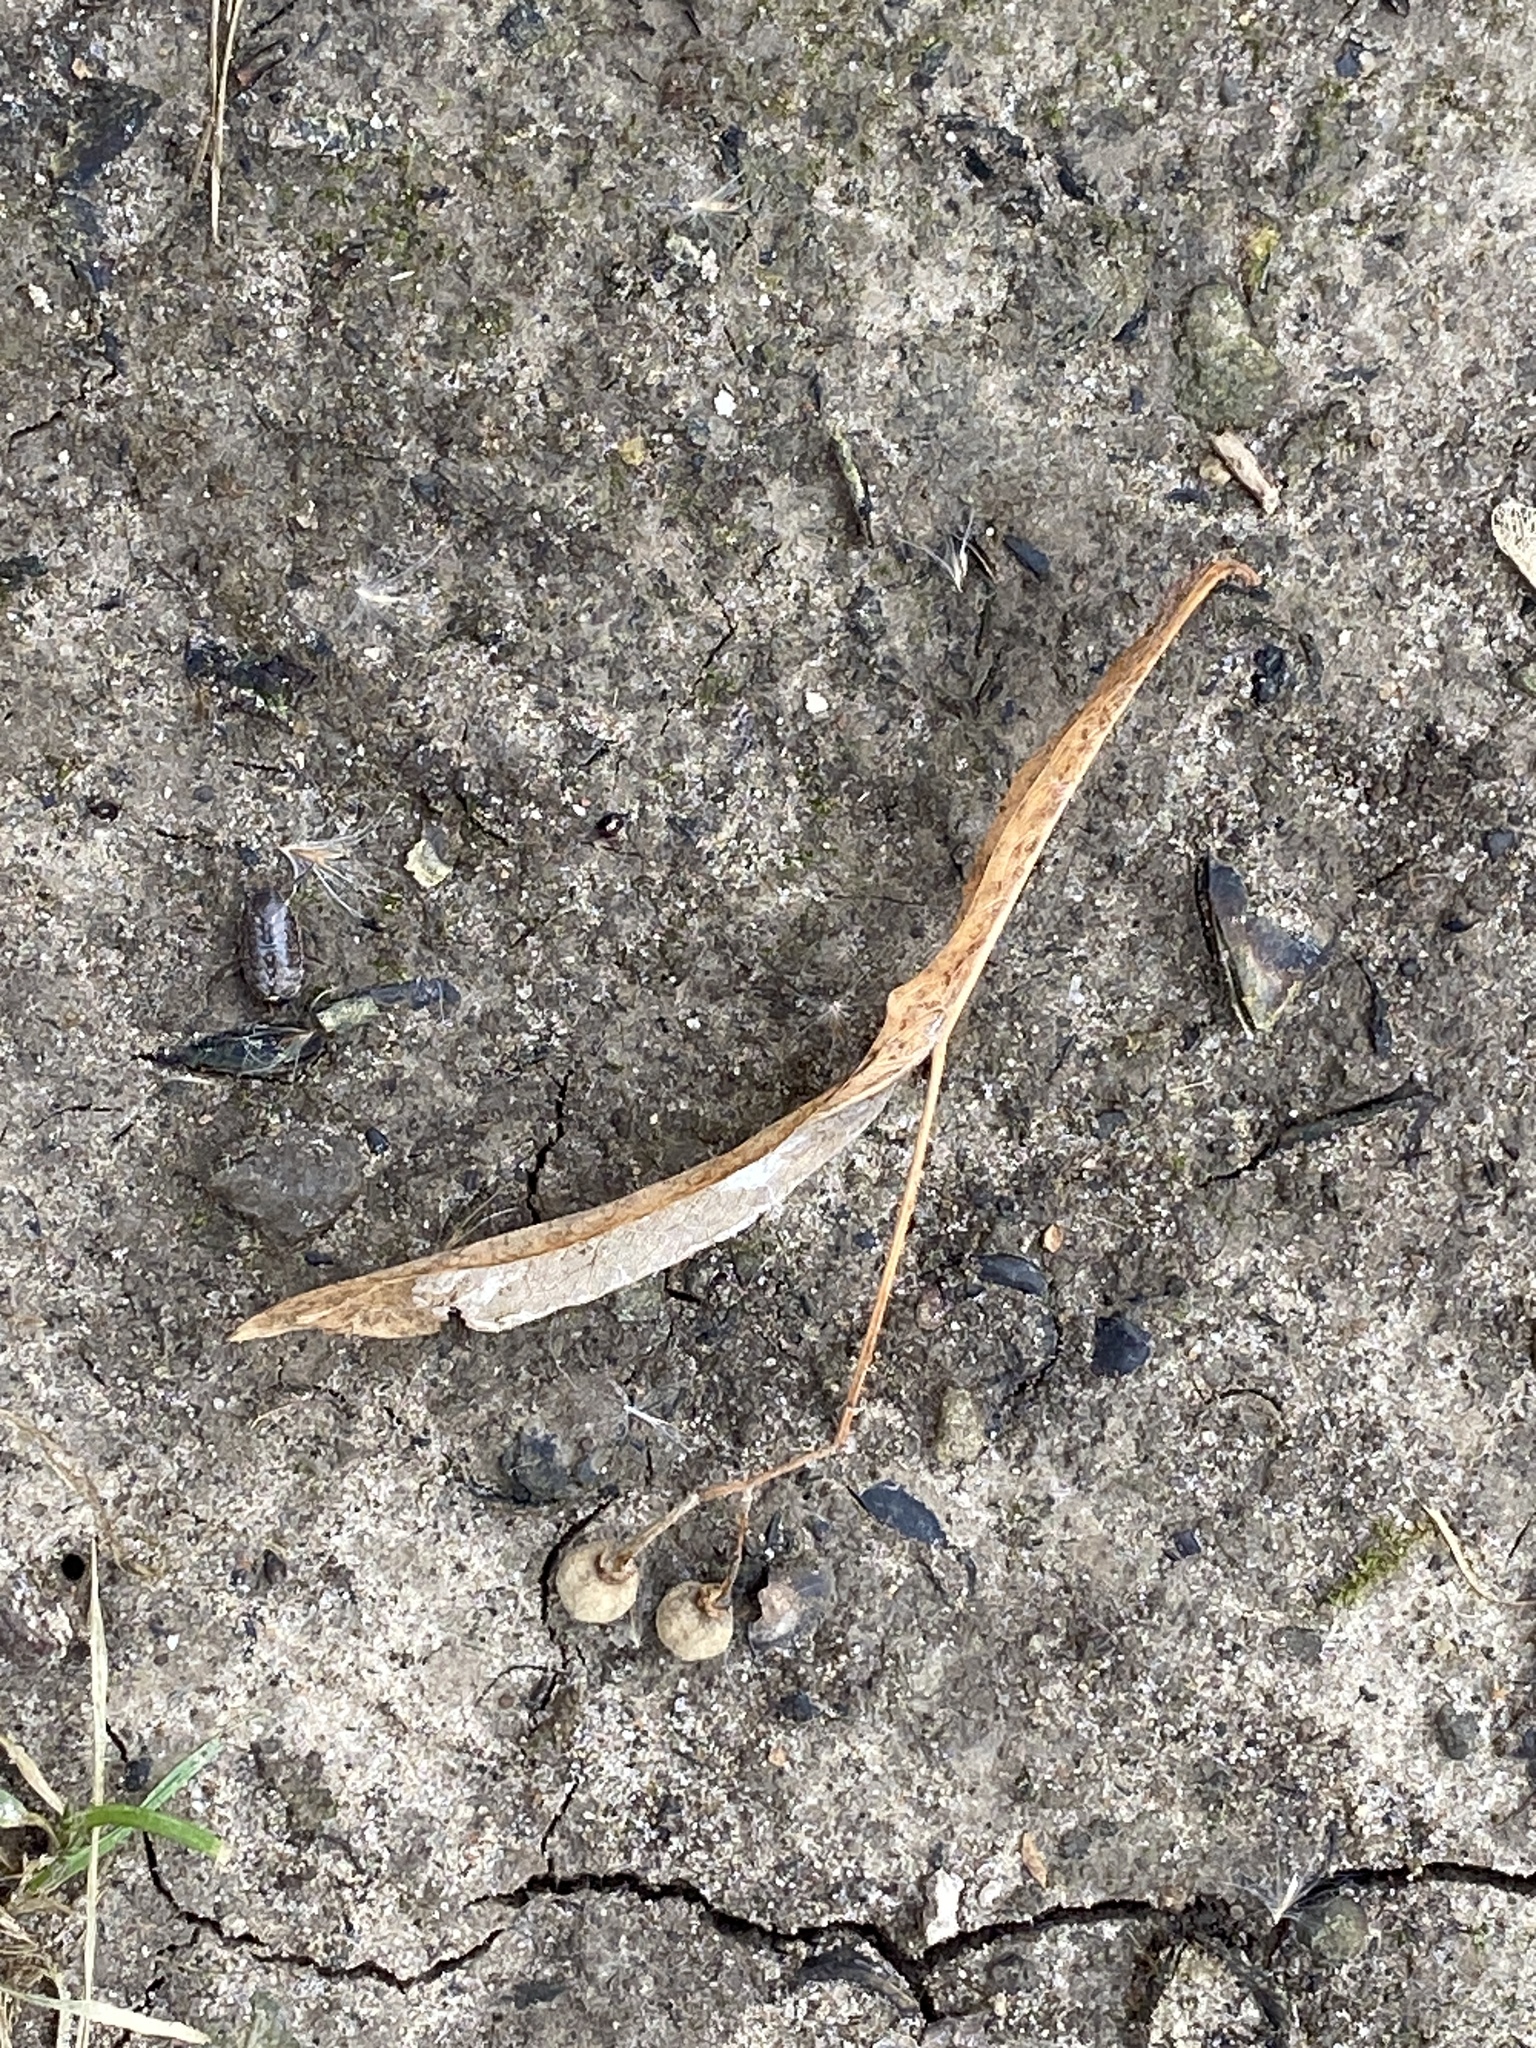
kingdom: Plantae
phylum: Tracheophyta
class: Magnoliopsida
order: Malvales
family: Malvaceae
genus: Tilia
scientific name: Tilia americana
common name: Basswood
